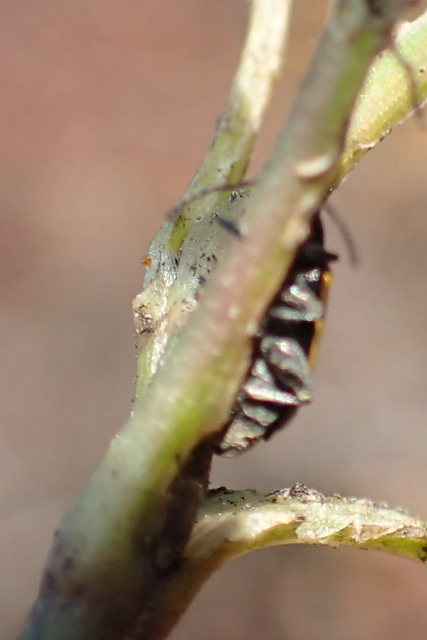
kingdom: Animalia
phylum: Arthropoda
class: Insecta
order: Coleoptera
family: Chrysomelidae
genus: Agasicles
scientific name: Agasicles hygrophila
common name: Alligatorweed flea beetle
